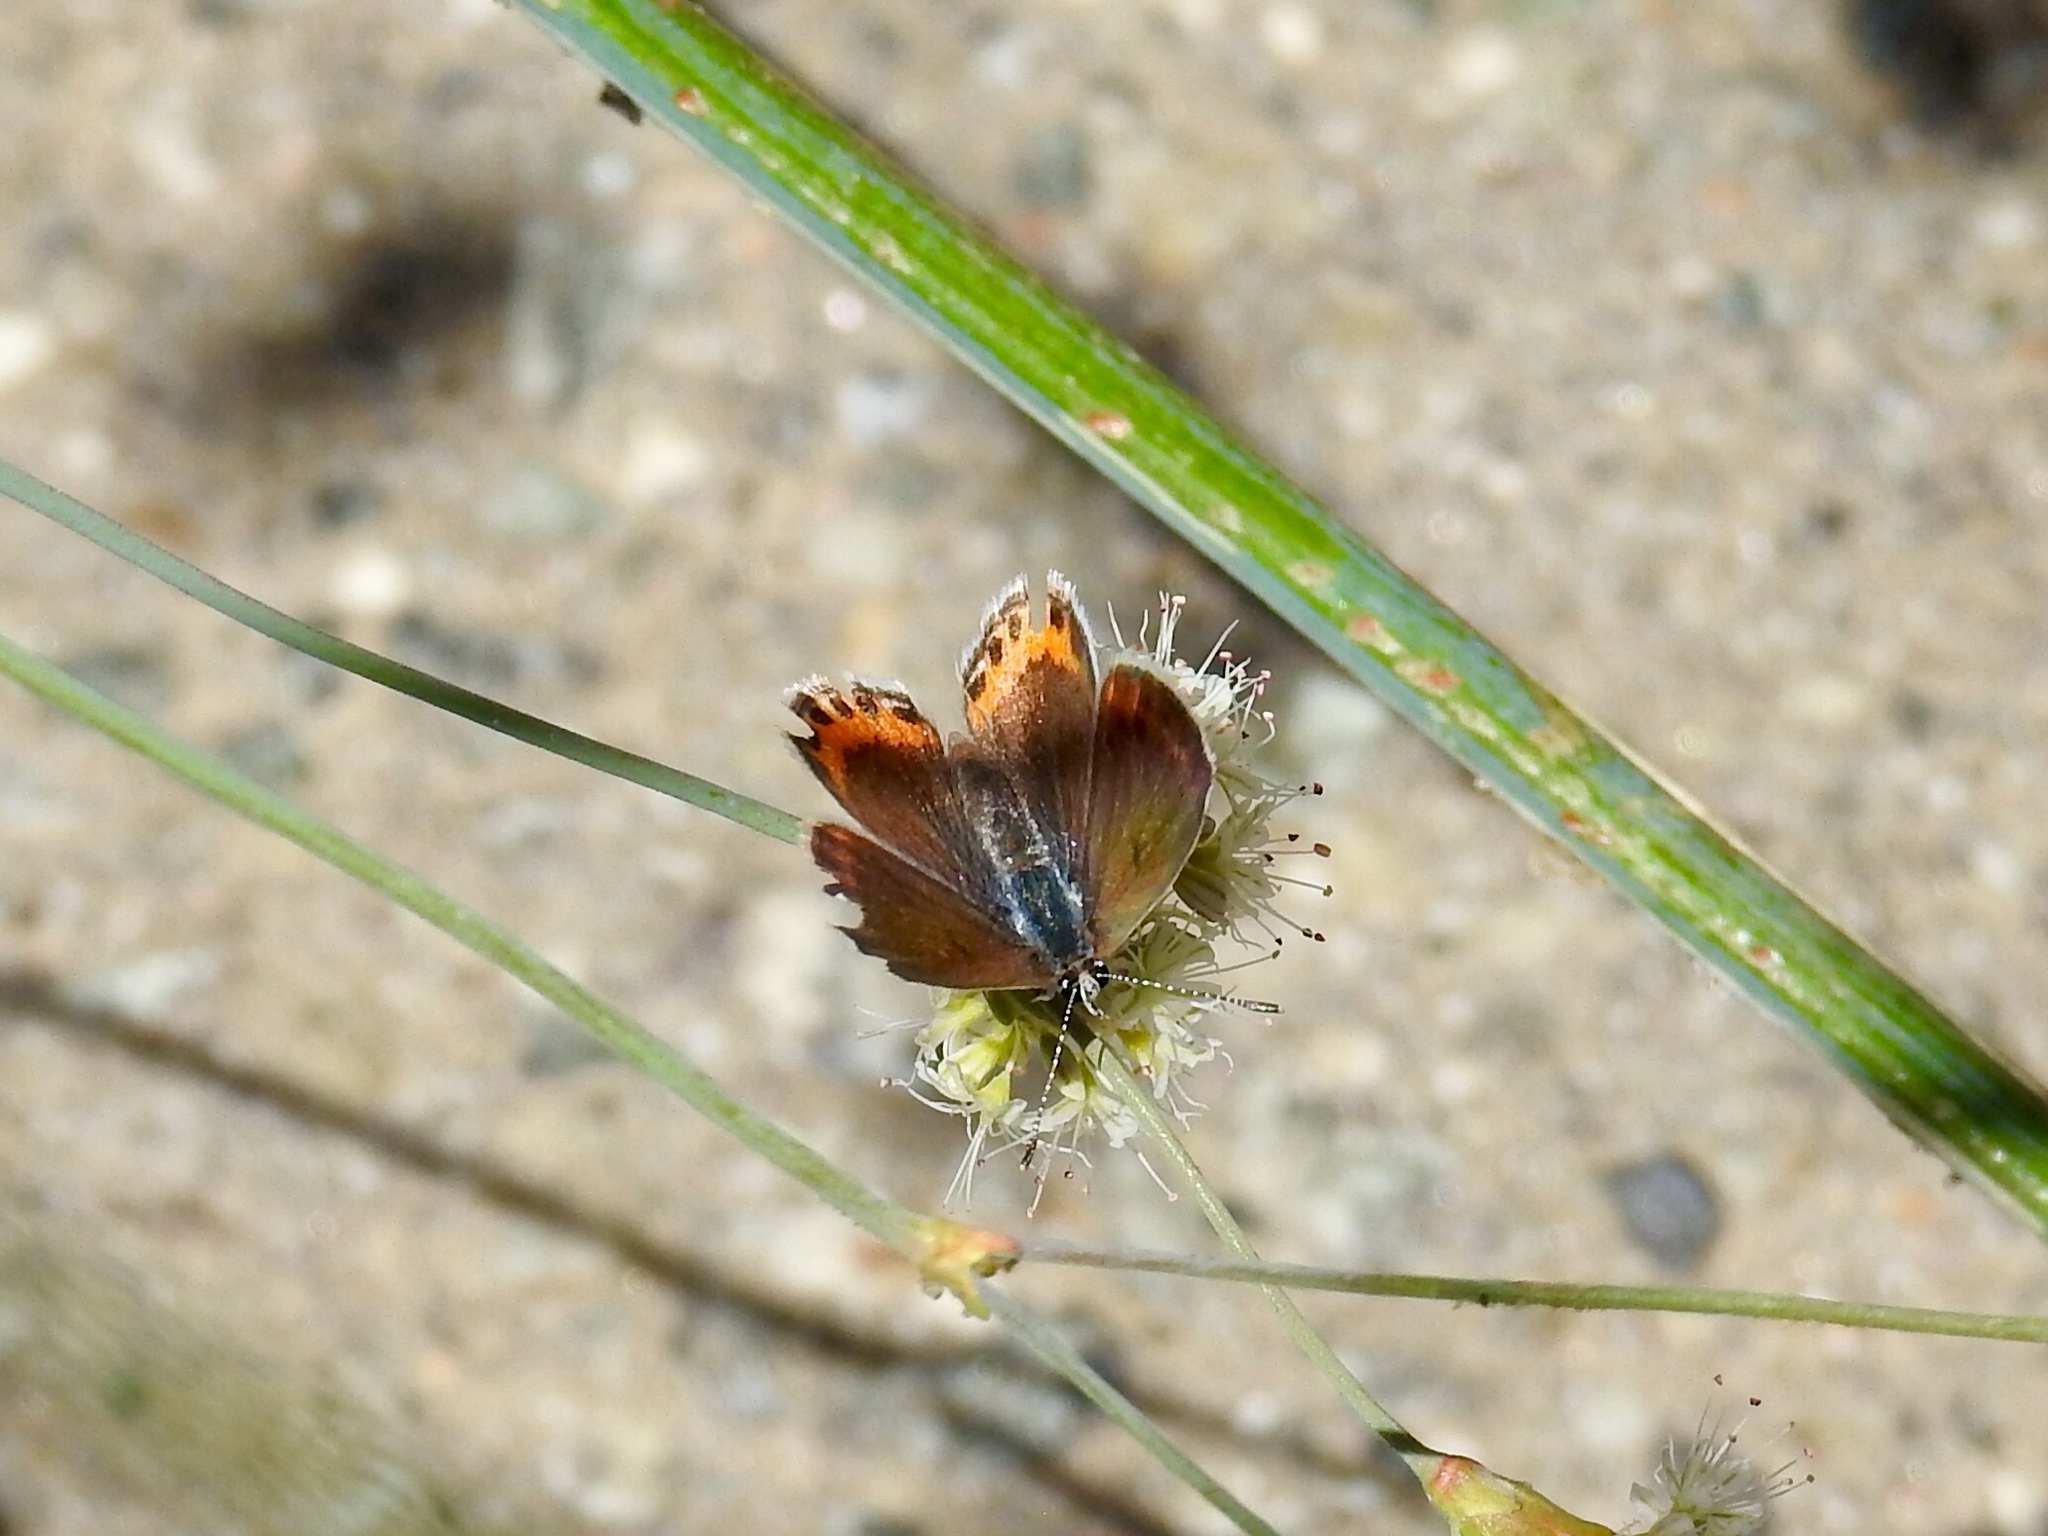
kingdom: Animalia
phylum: Arthropoda
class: Insecta
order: Lepidoptera
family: Lycaenidae
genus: Icaricia
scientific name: Icaricia acmon
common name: Acmon blue
